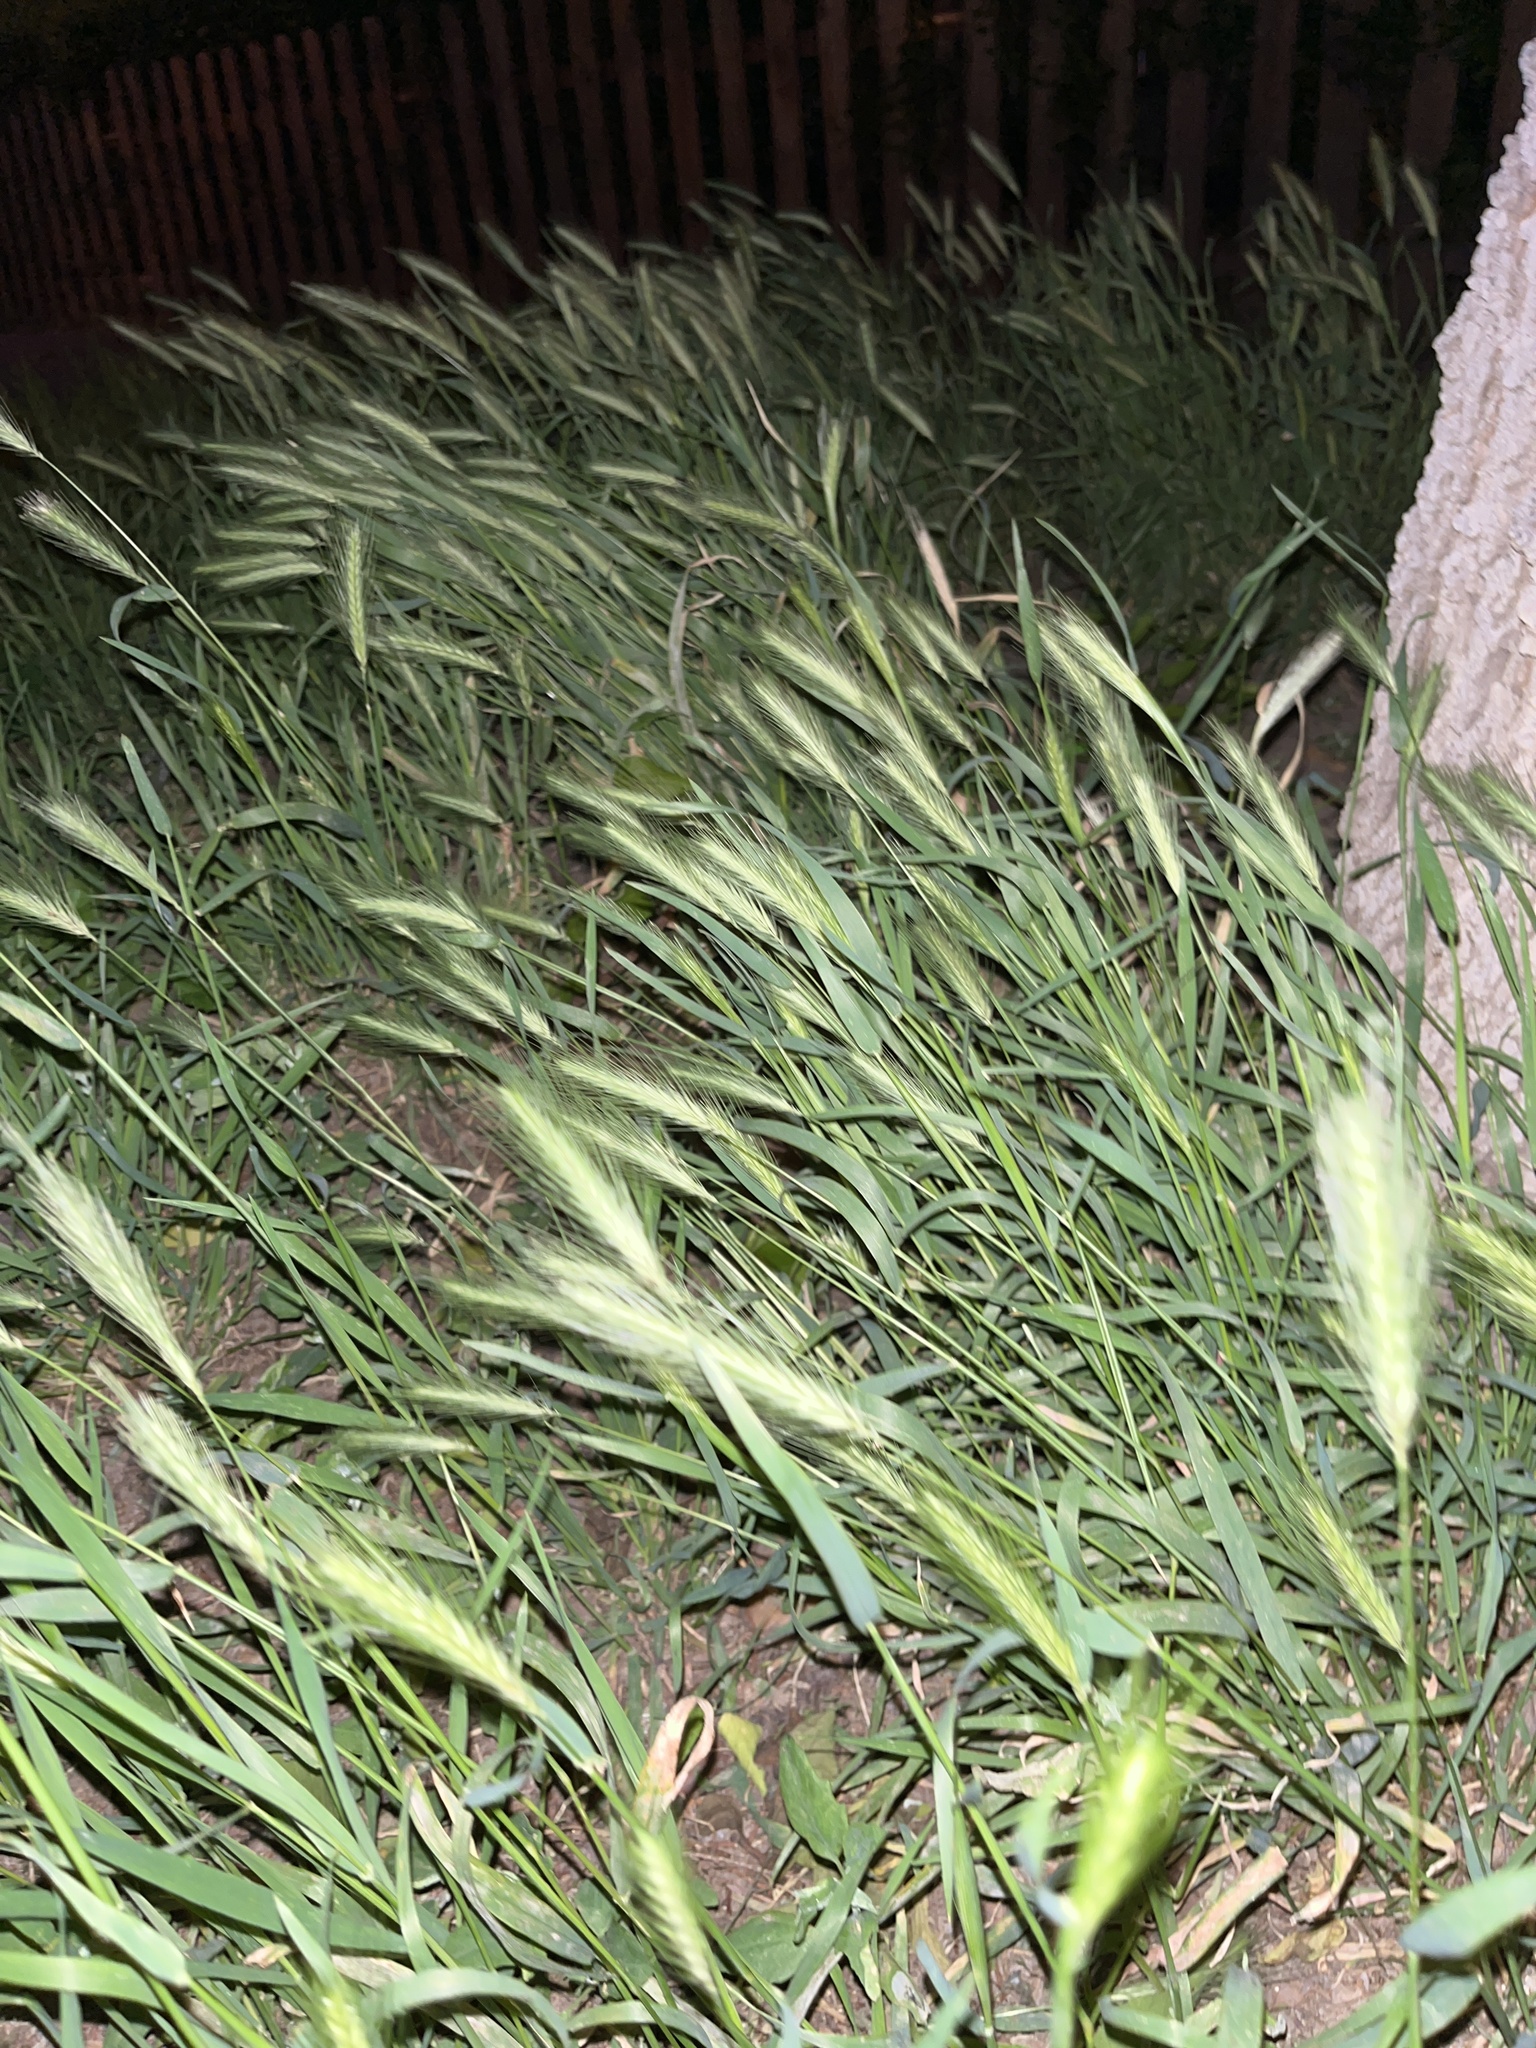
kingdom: Plantae
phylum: Tracheophyta
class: Liliopsida
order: Poales
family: Poaceae
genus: Hordeum
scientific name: Hordeum murinum
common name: Wall barley
